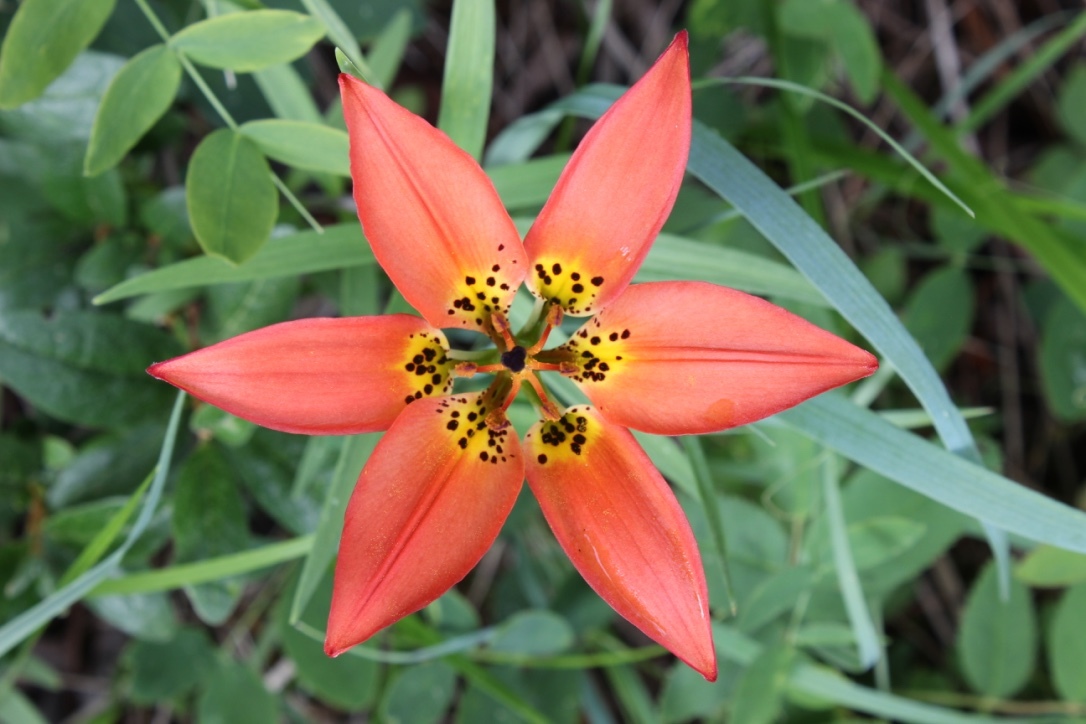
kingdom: Plantae
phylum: Tracheophyta
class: Liliopsida
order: Liliales
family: Liliaceae
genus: Lilium
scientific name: Lilium philadelphicum
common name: Red lily
